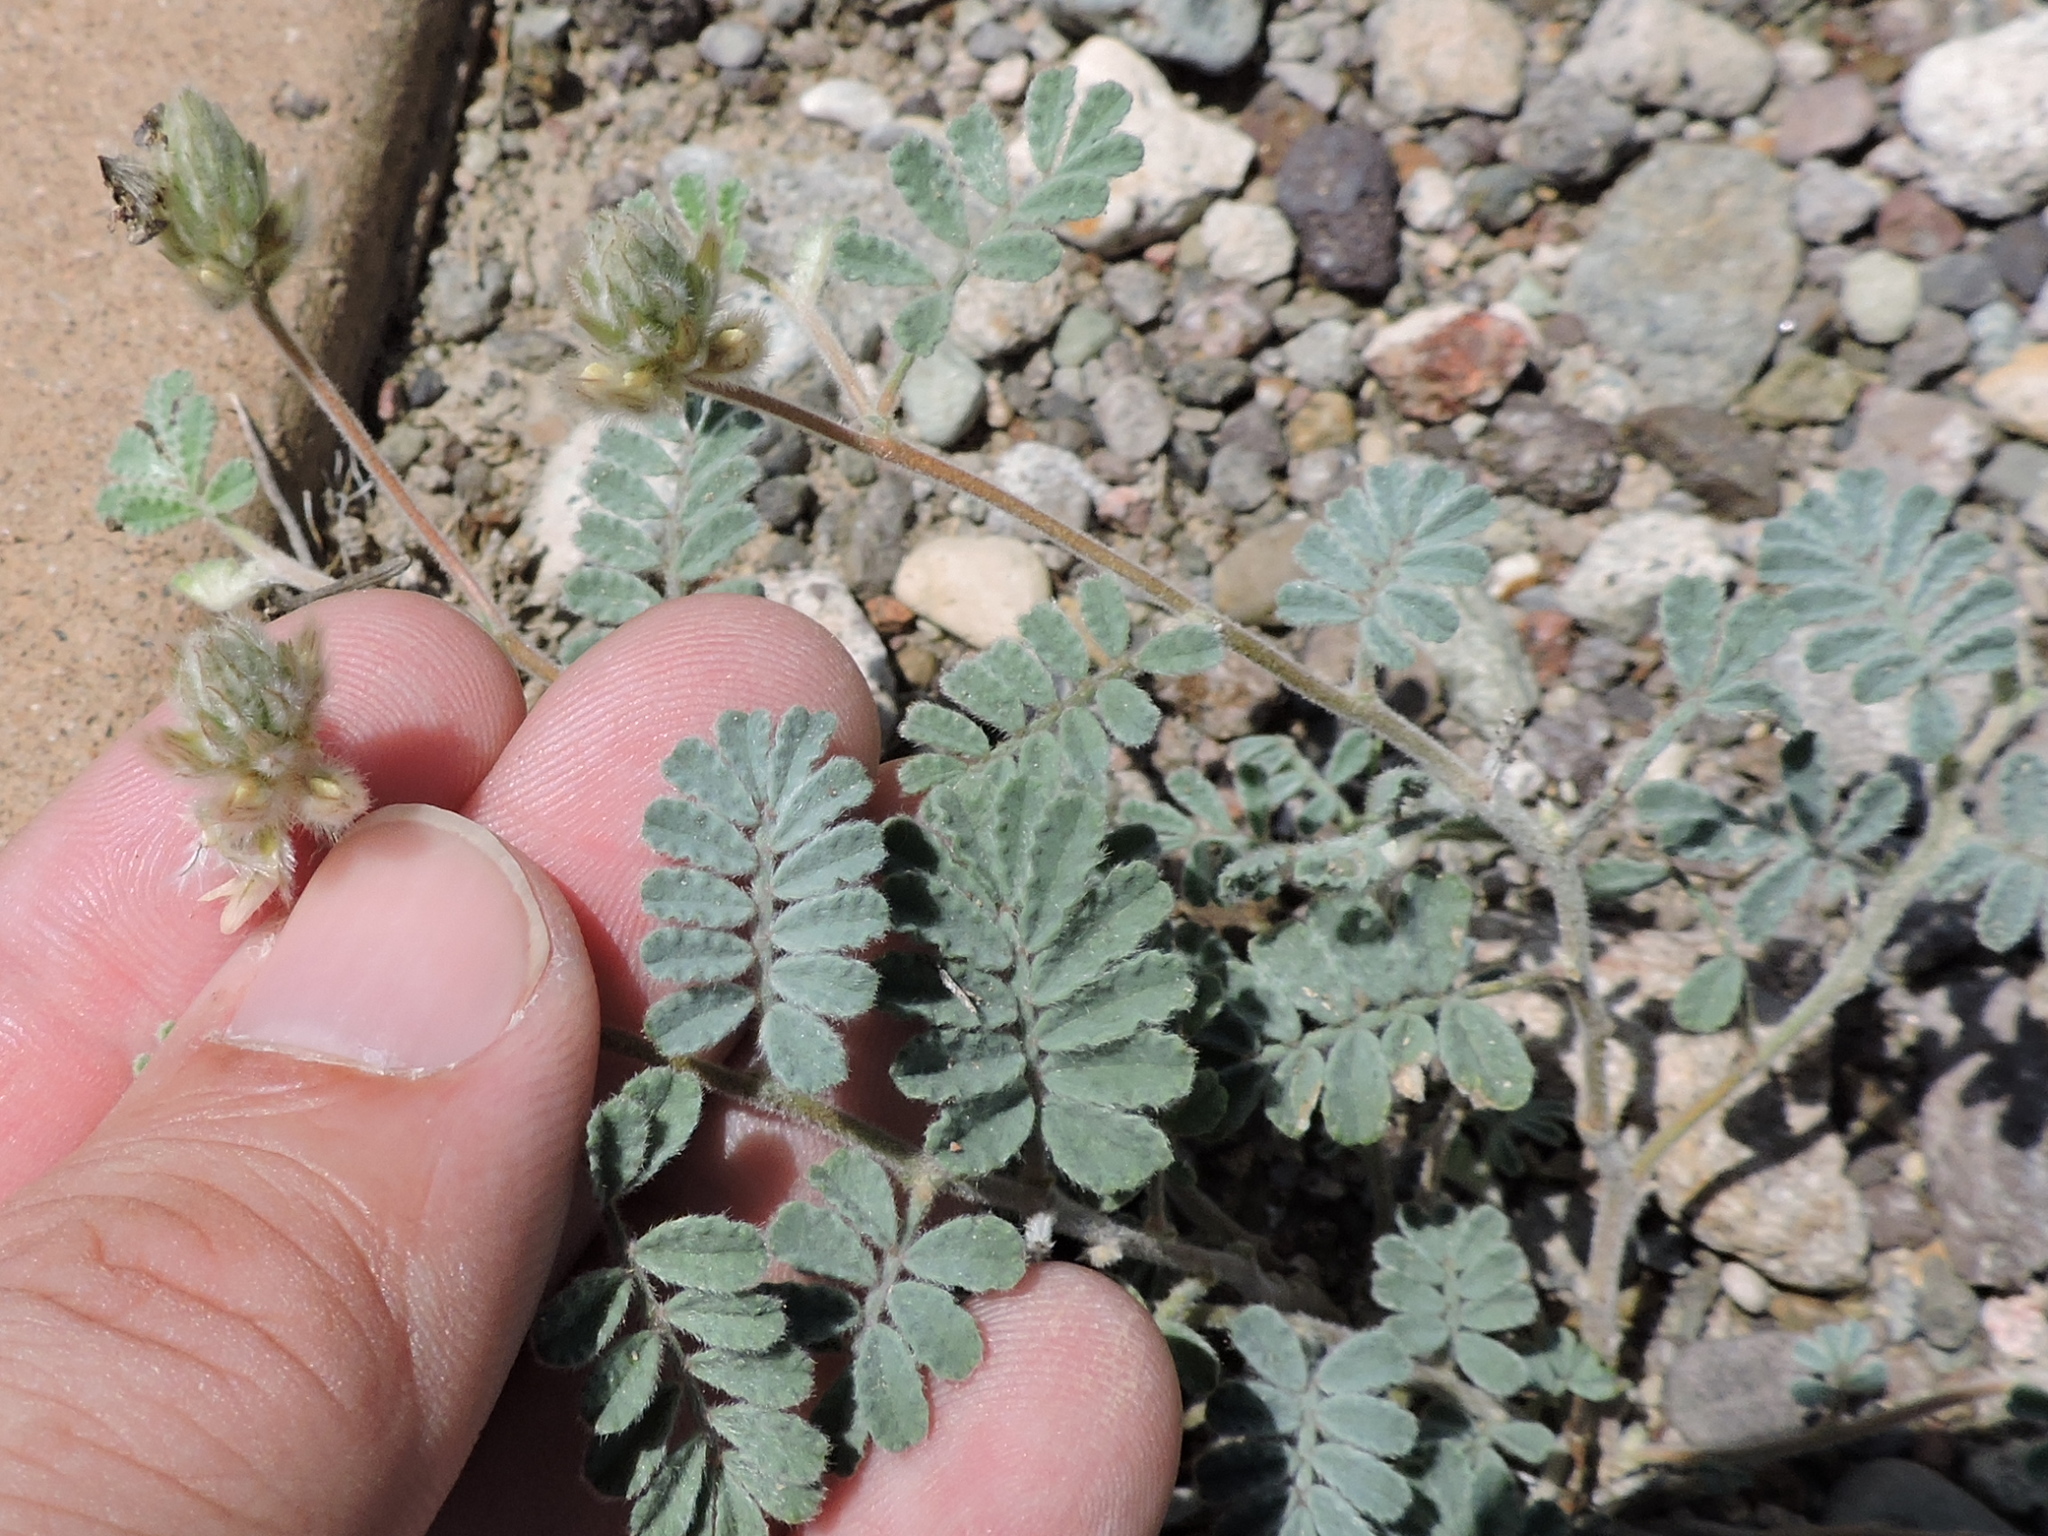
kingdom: Plantae
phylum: Tracheophyta
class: Magnoliopsida
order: Fabales
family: Fabaceae
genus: Dalea
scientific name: Dalea neomexicana
